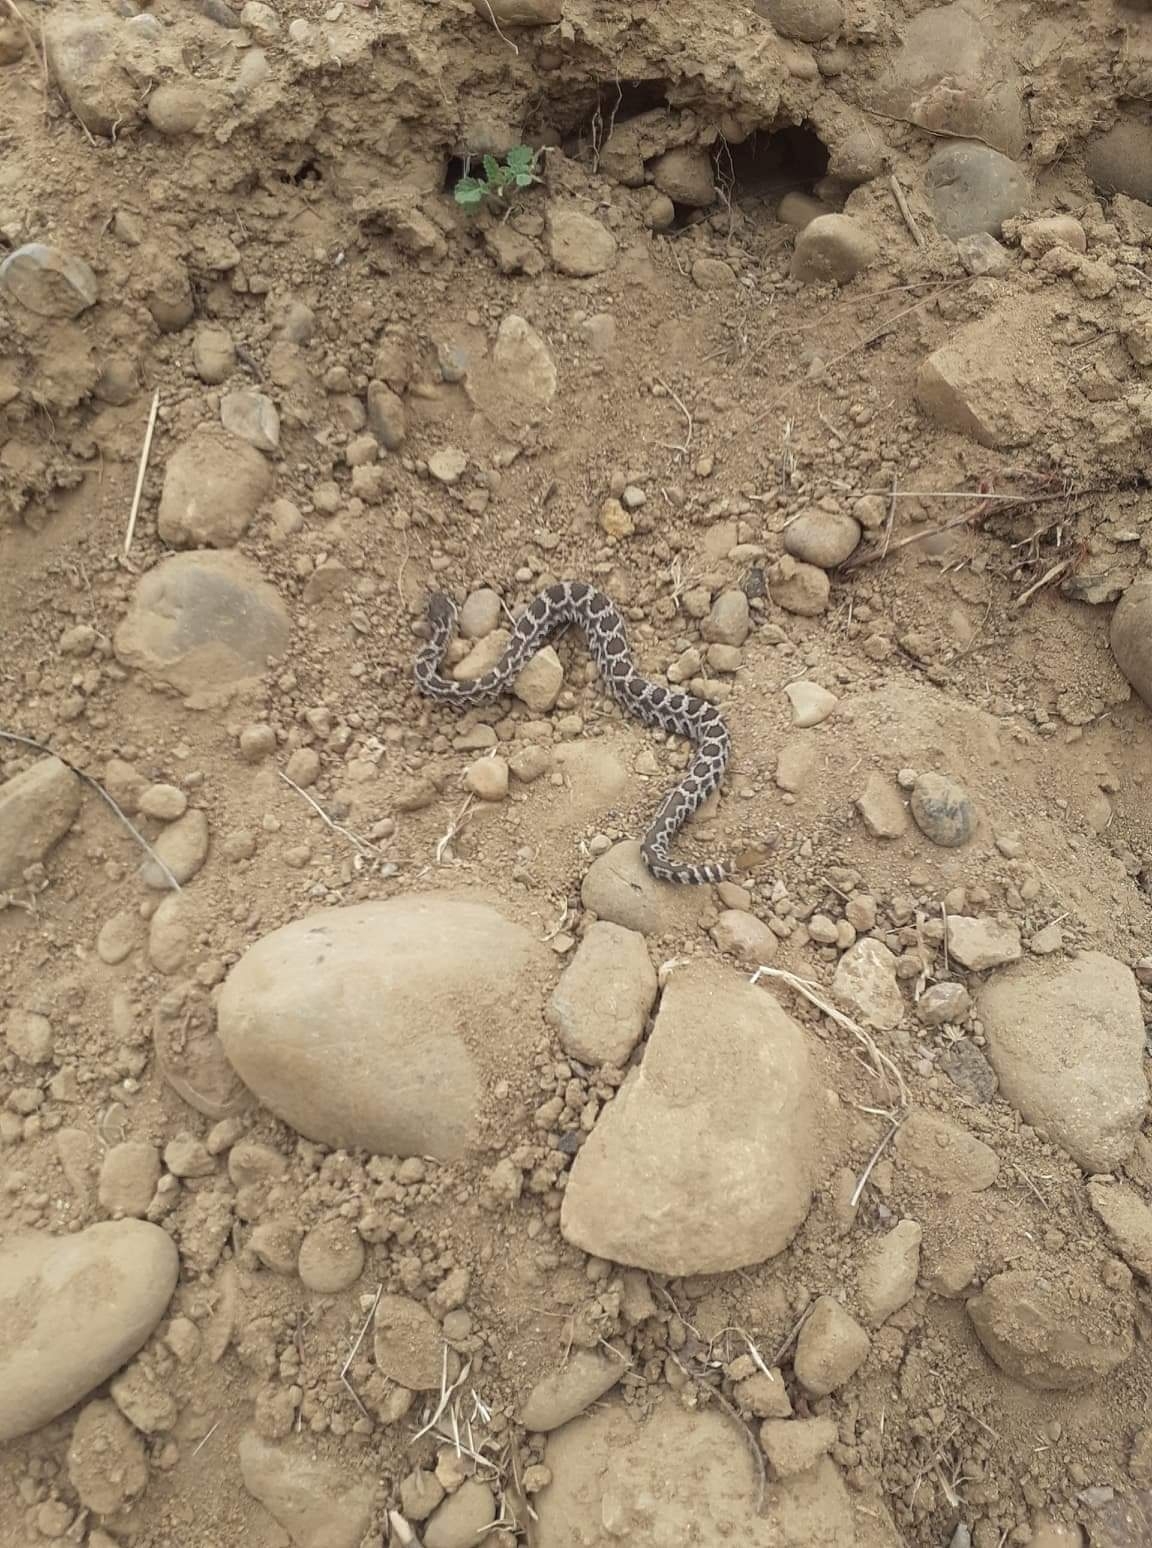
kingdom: Animalia
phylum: Chordata
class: Squamata
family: Viperidae
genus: Crotalus
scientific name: Crotalus oreganus
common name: Abyssus
